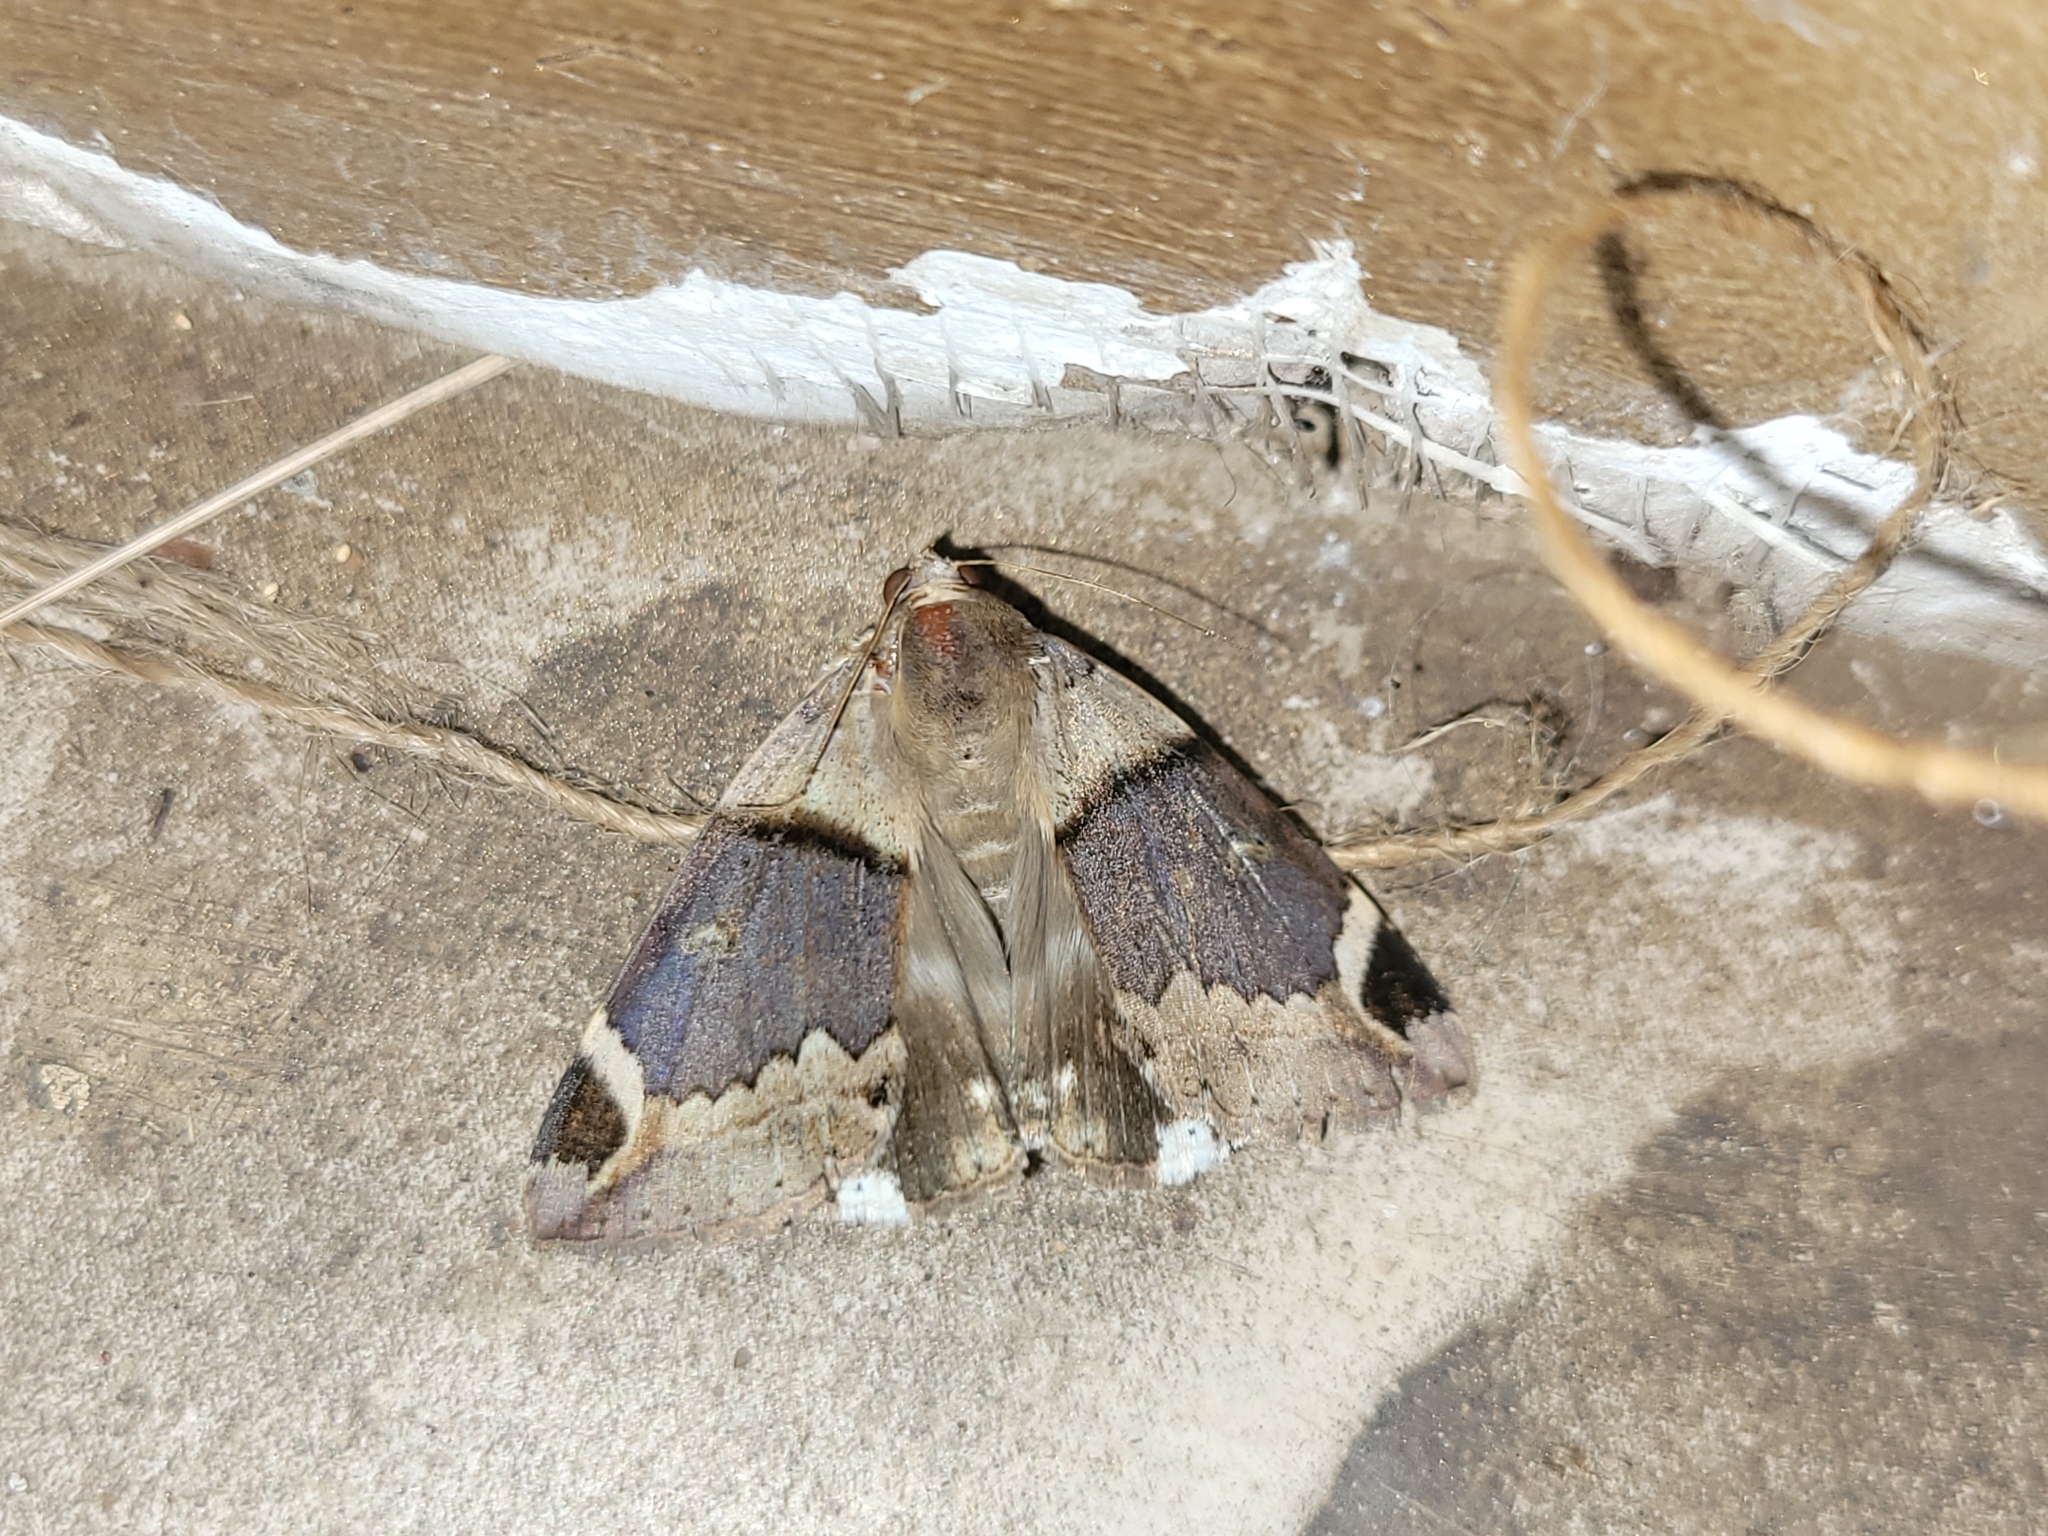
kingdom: Animalia
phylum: Arthropoda
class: Insecta
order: Lepidoptera
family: Erebidae
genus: Achaea
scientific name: Achaea lienardi
